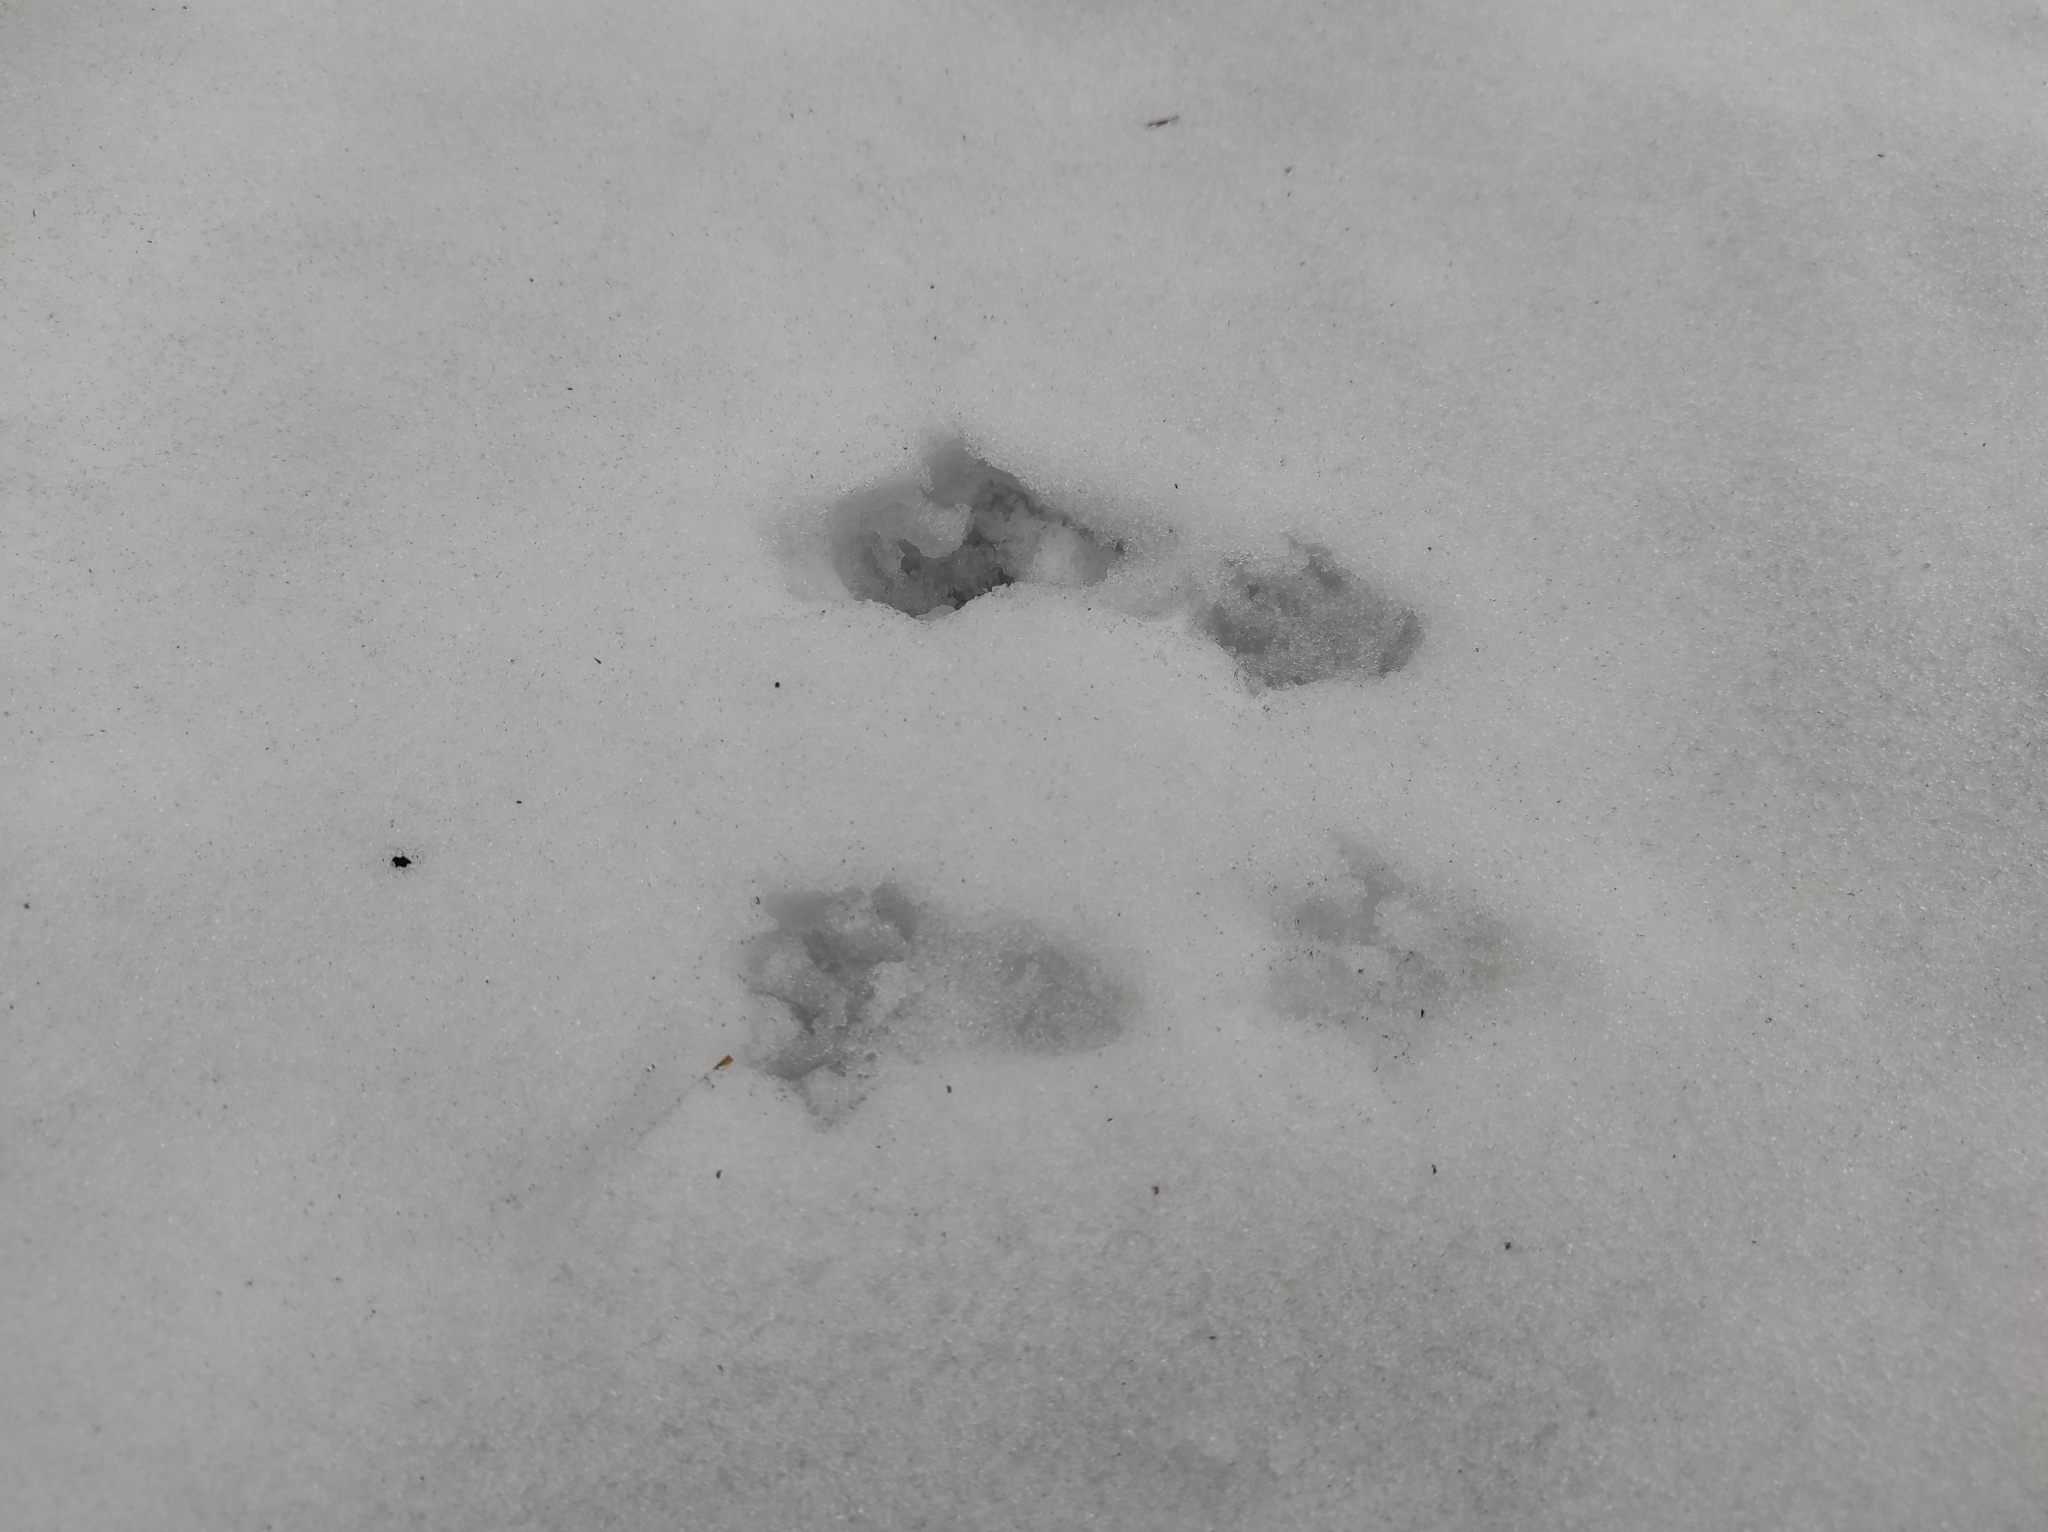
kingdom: Animalia
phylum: Chordata
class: Mammalia
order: Rodentia
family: Sciuridae
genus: Sciurus
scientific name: Sciurus vulgaris
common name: Eurasian red squirrel
